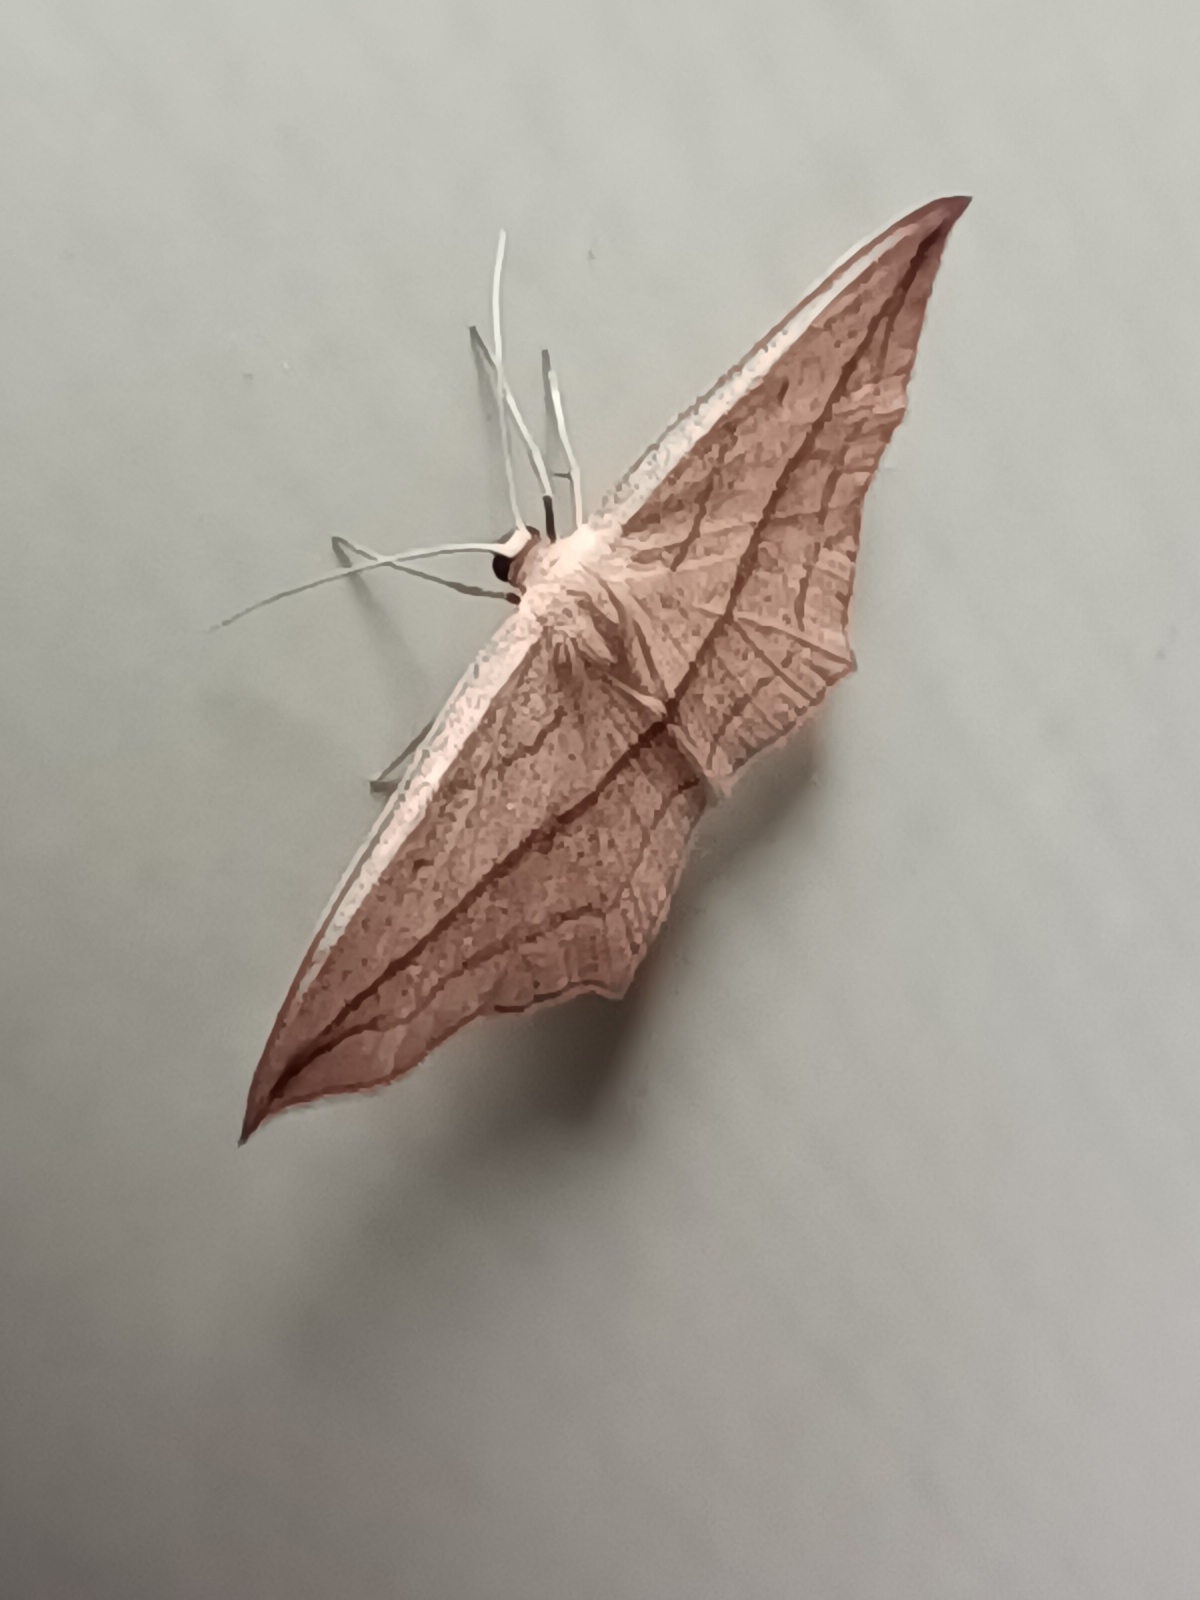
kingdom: Animalia
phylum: Arthropoda
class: Insecta
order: Lepidoptera
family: Geometridae
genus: Timandra
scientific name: Timandra comae
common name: Blood-vein
